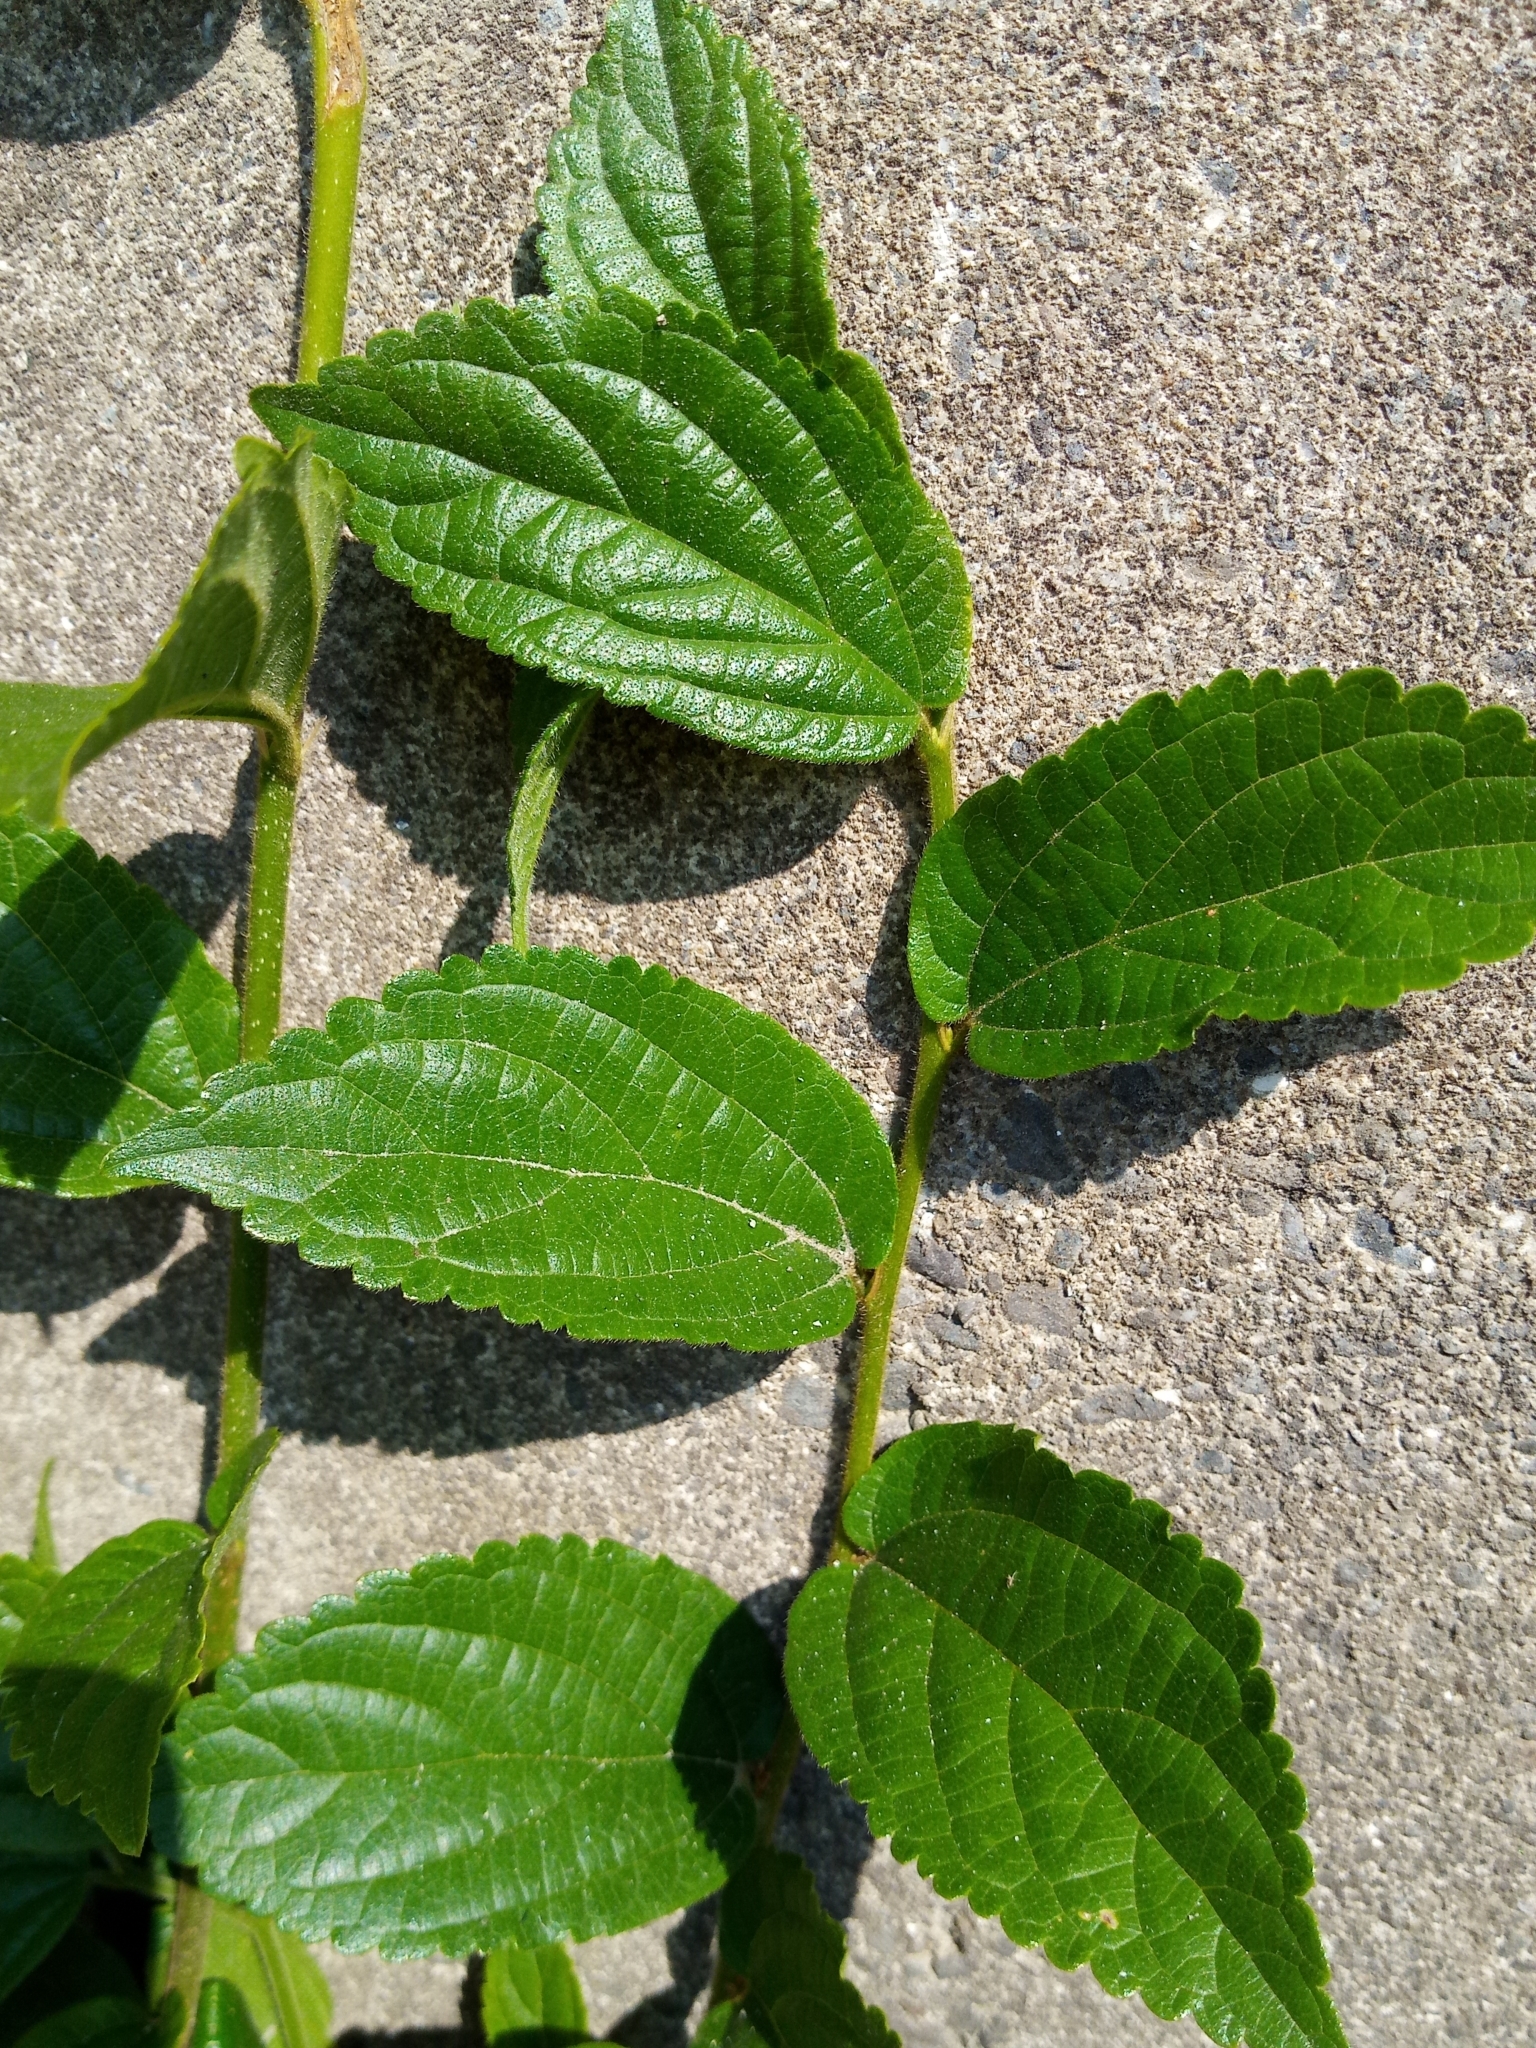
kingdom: Plantae
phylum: Tracheophyta
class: Magnoliopsida
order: Rosales
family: Cannabaceae
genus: Celtis
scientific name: Celtis sinensis
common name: Chinese hackberry
